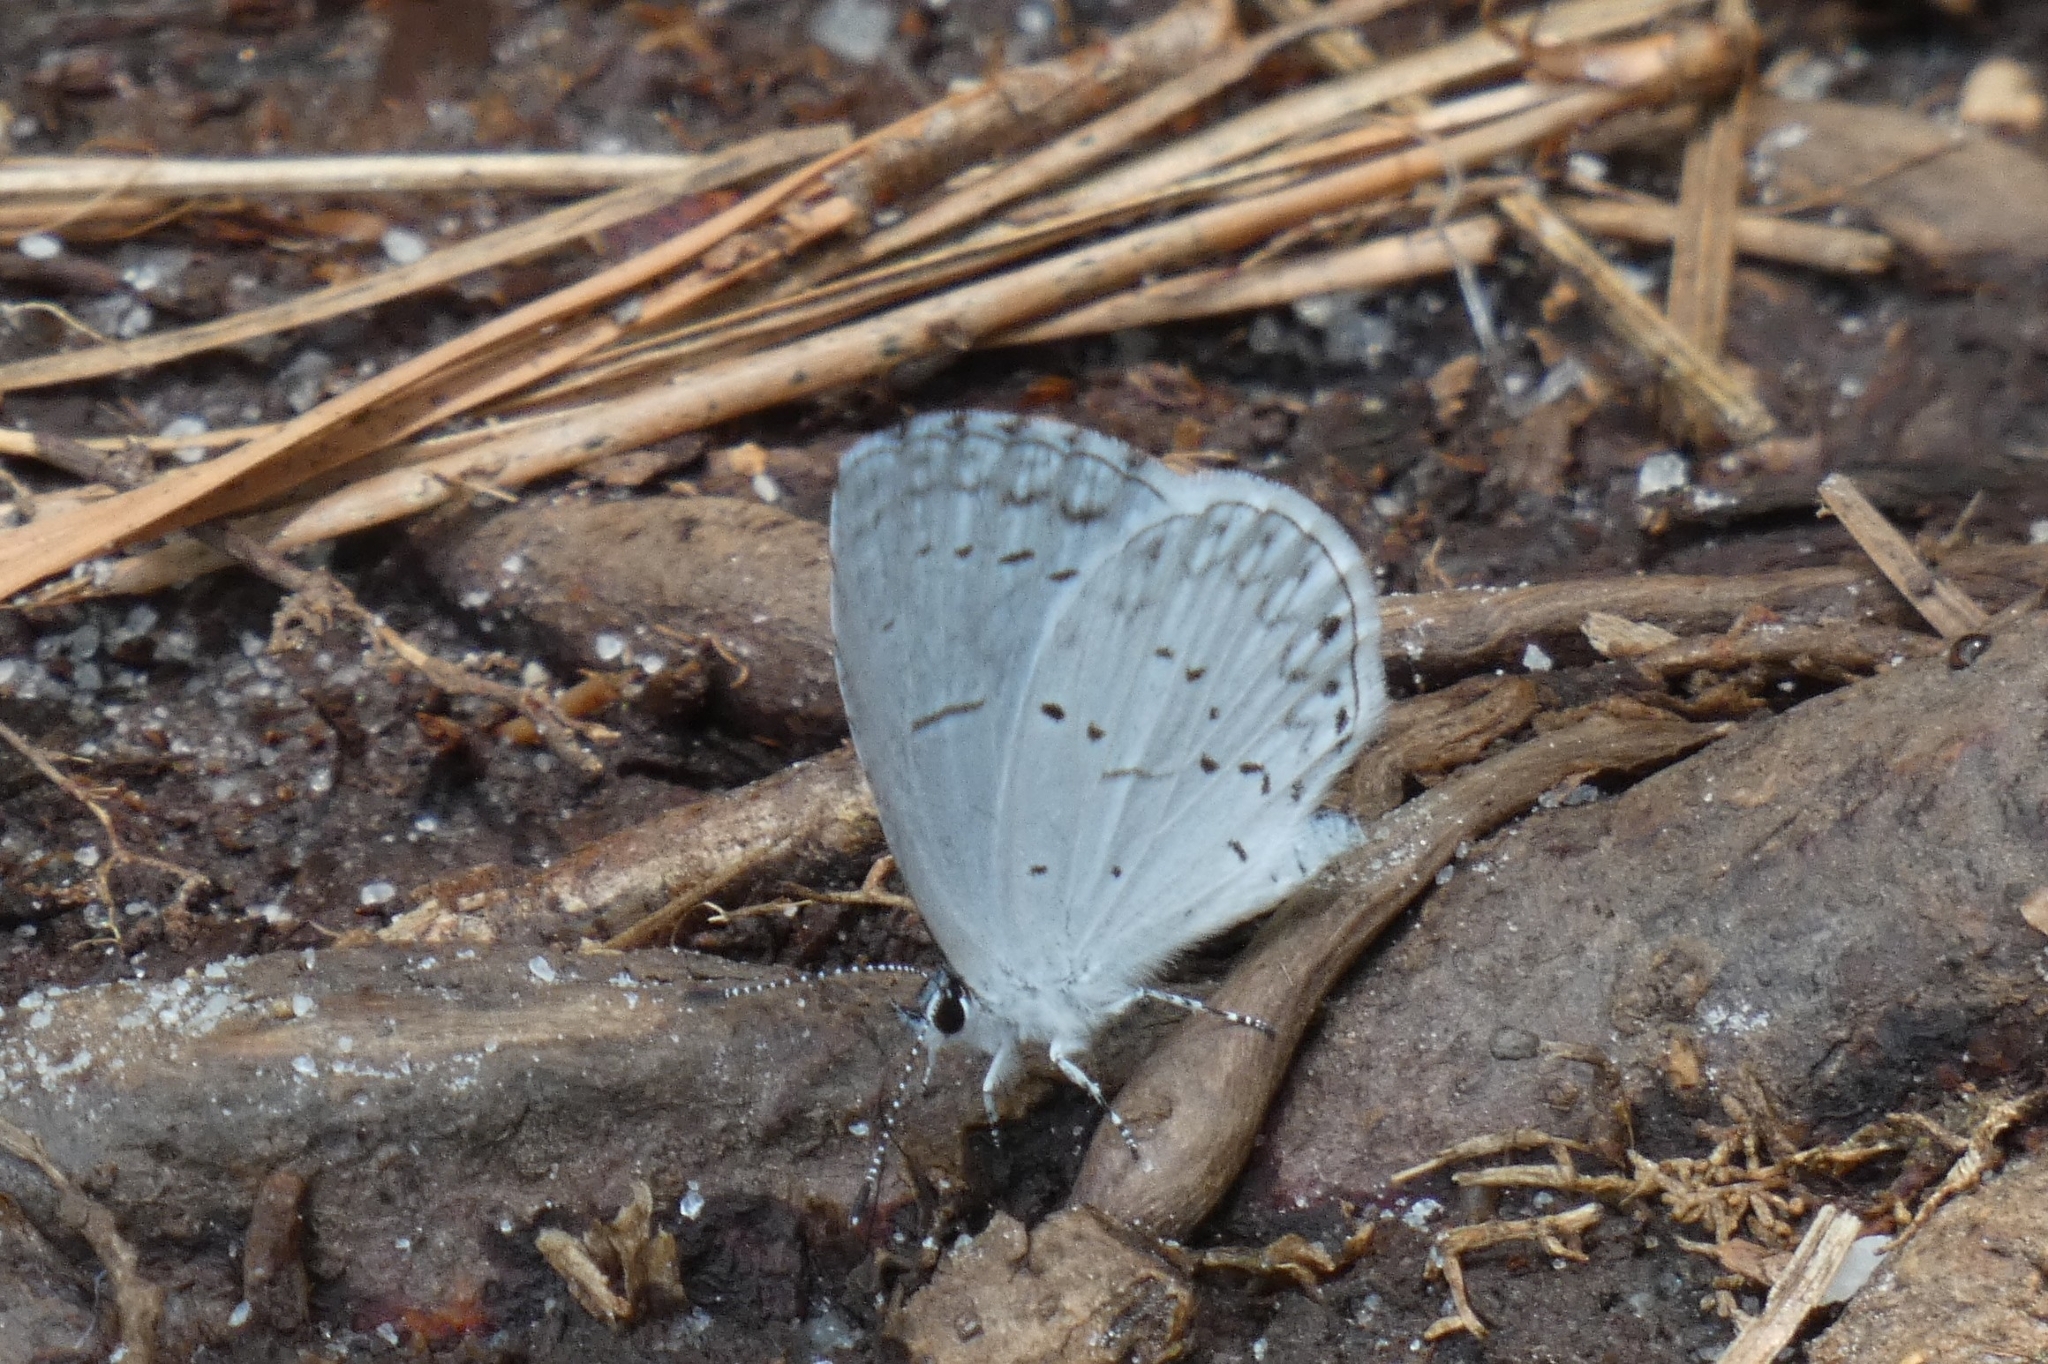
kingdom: Animalia
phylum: Arthropoda
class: Insecta
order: Lepidoptera
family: Lycaenidae
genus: Cyaniris
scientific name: Cyaniris neglecta
